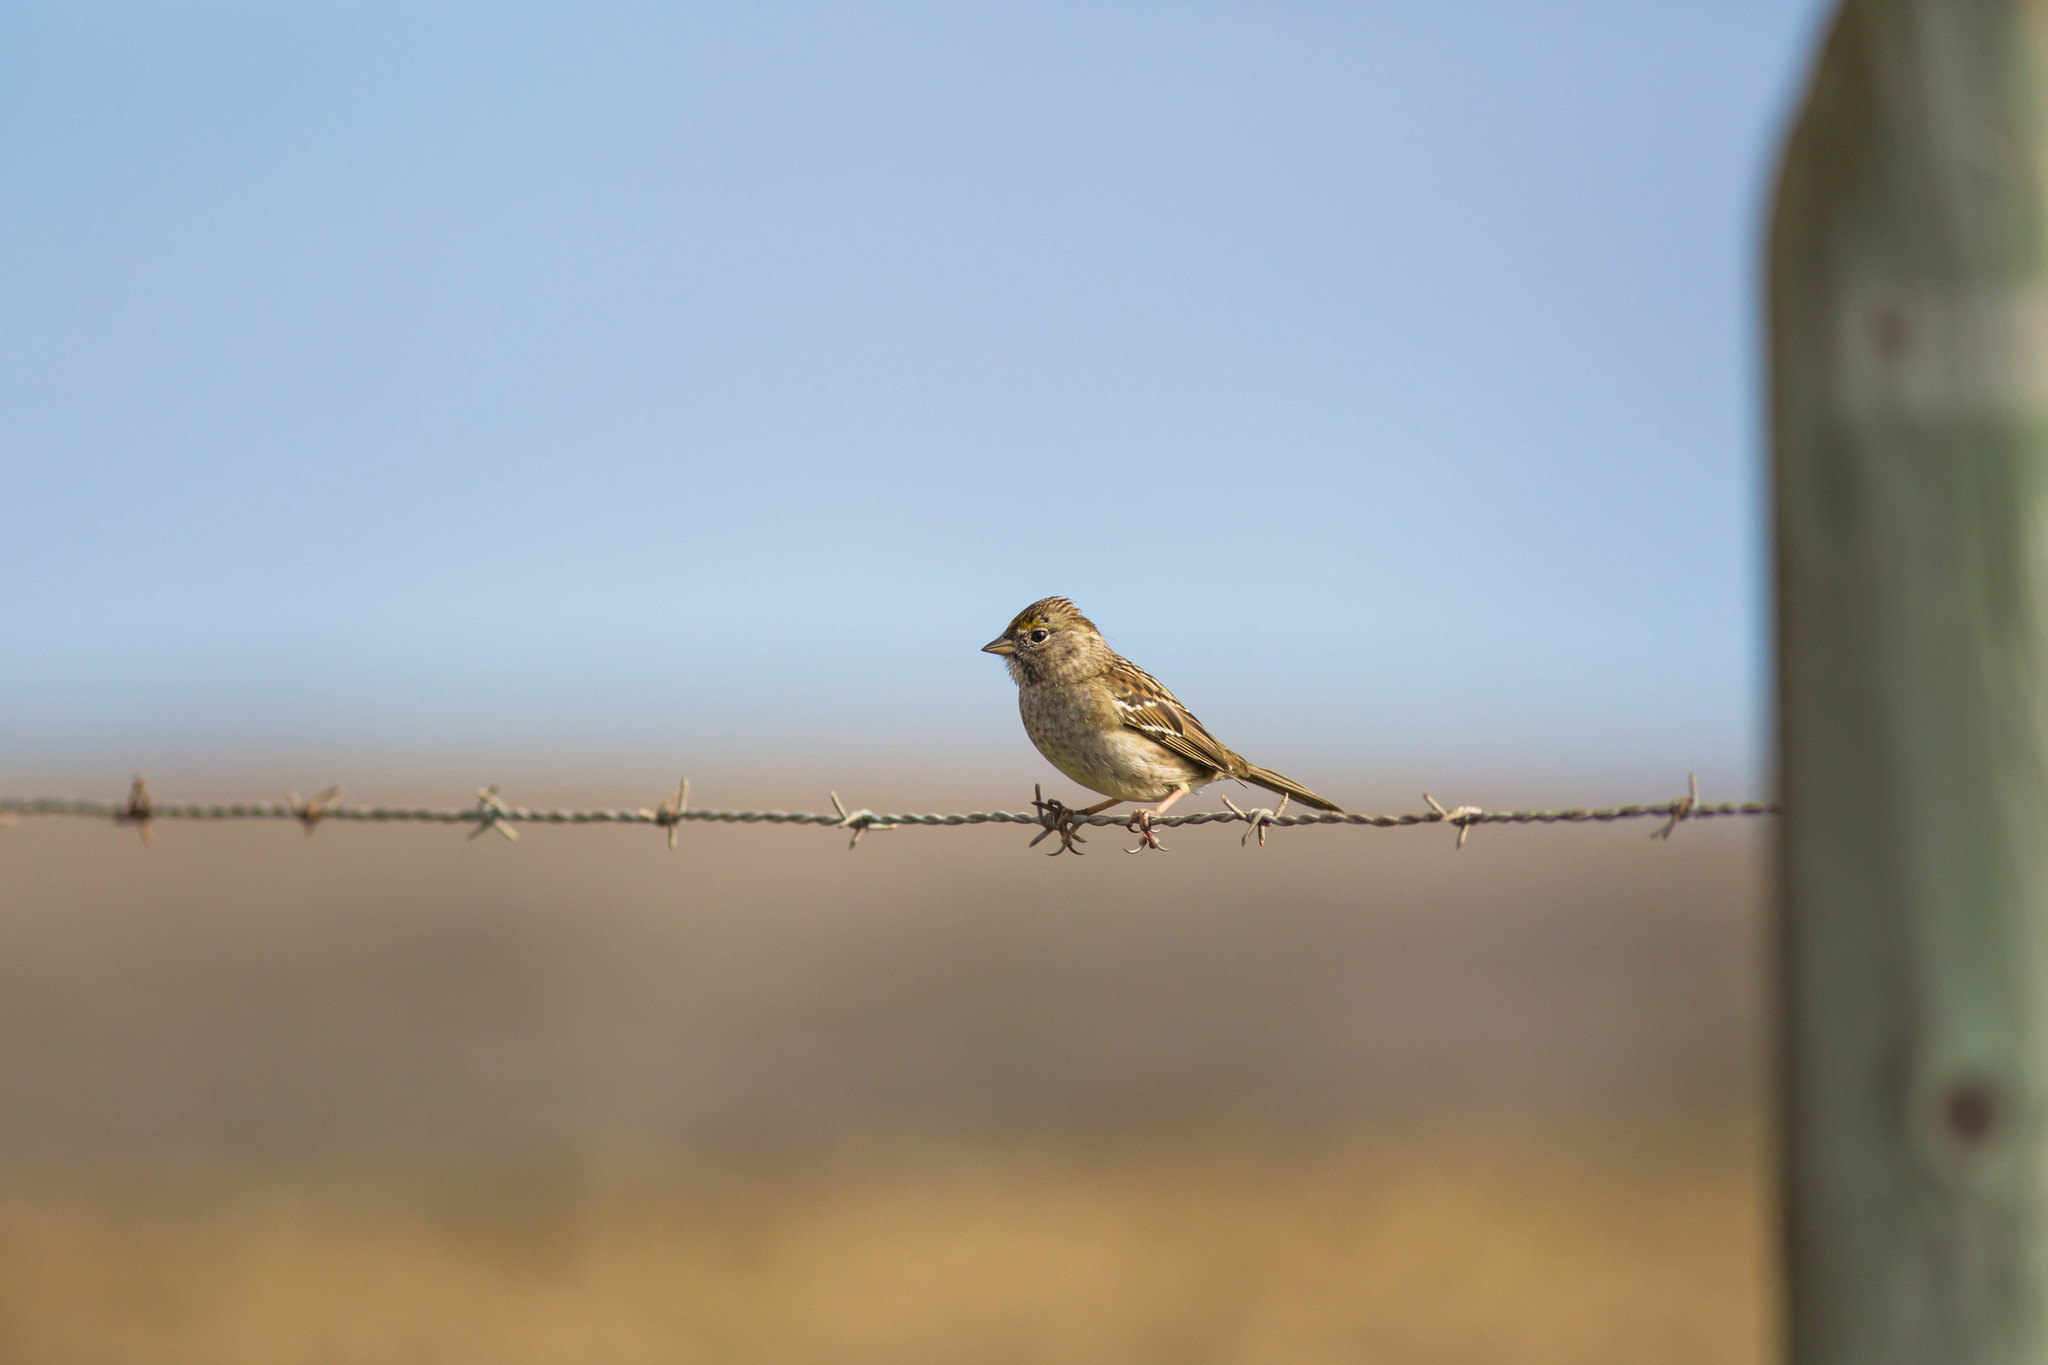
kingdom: Animalia
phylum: Chordata
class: Aves
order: Passeriformes
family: Passerellidae
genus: Zonotrichia
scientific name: Zonotrichia atricapilla
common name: Golden-crowned sparrow
